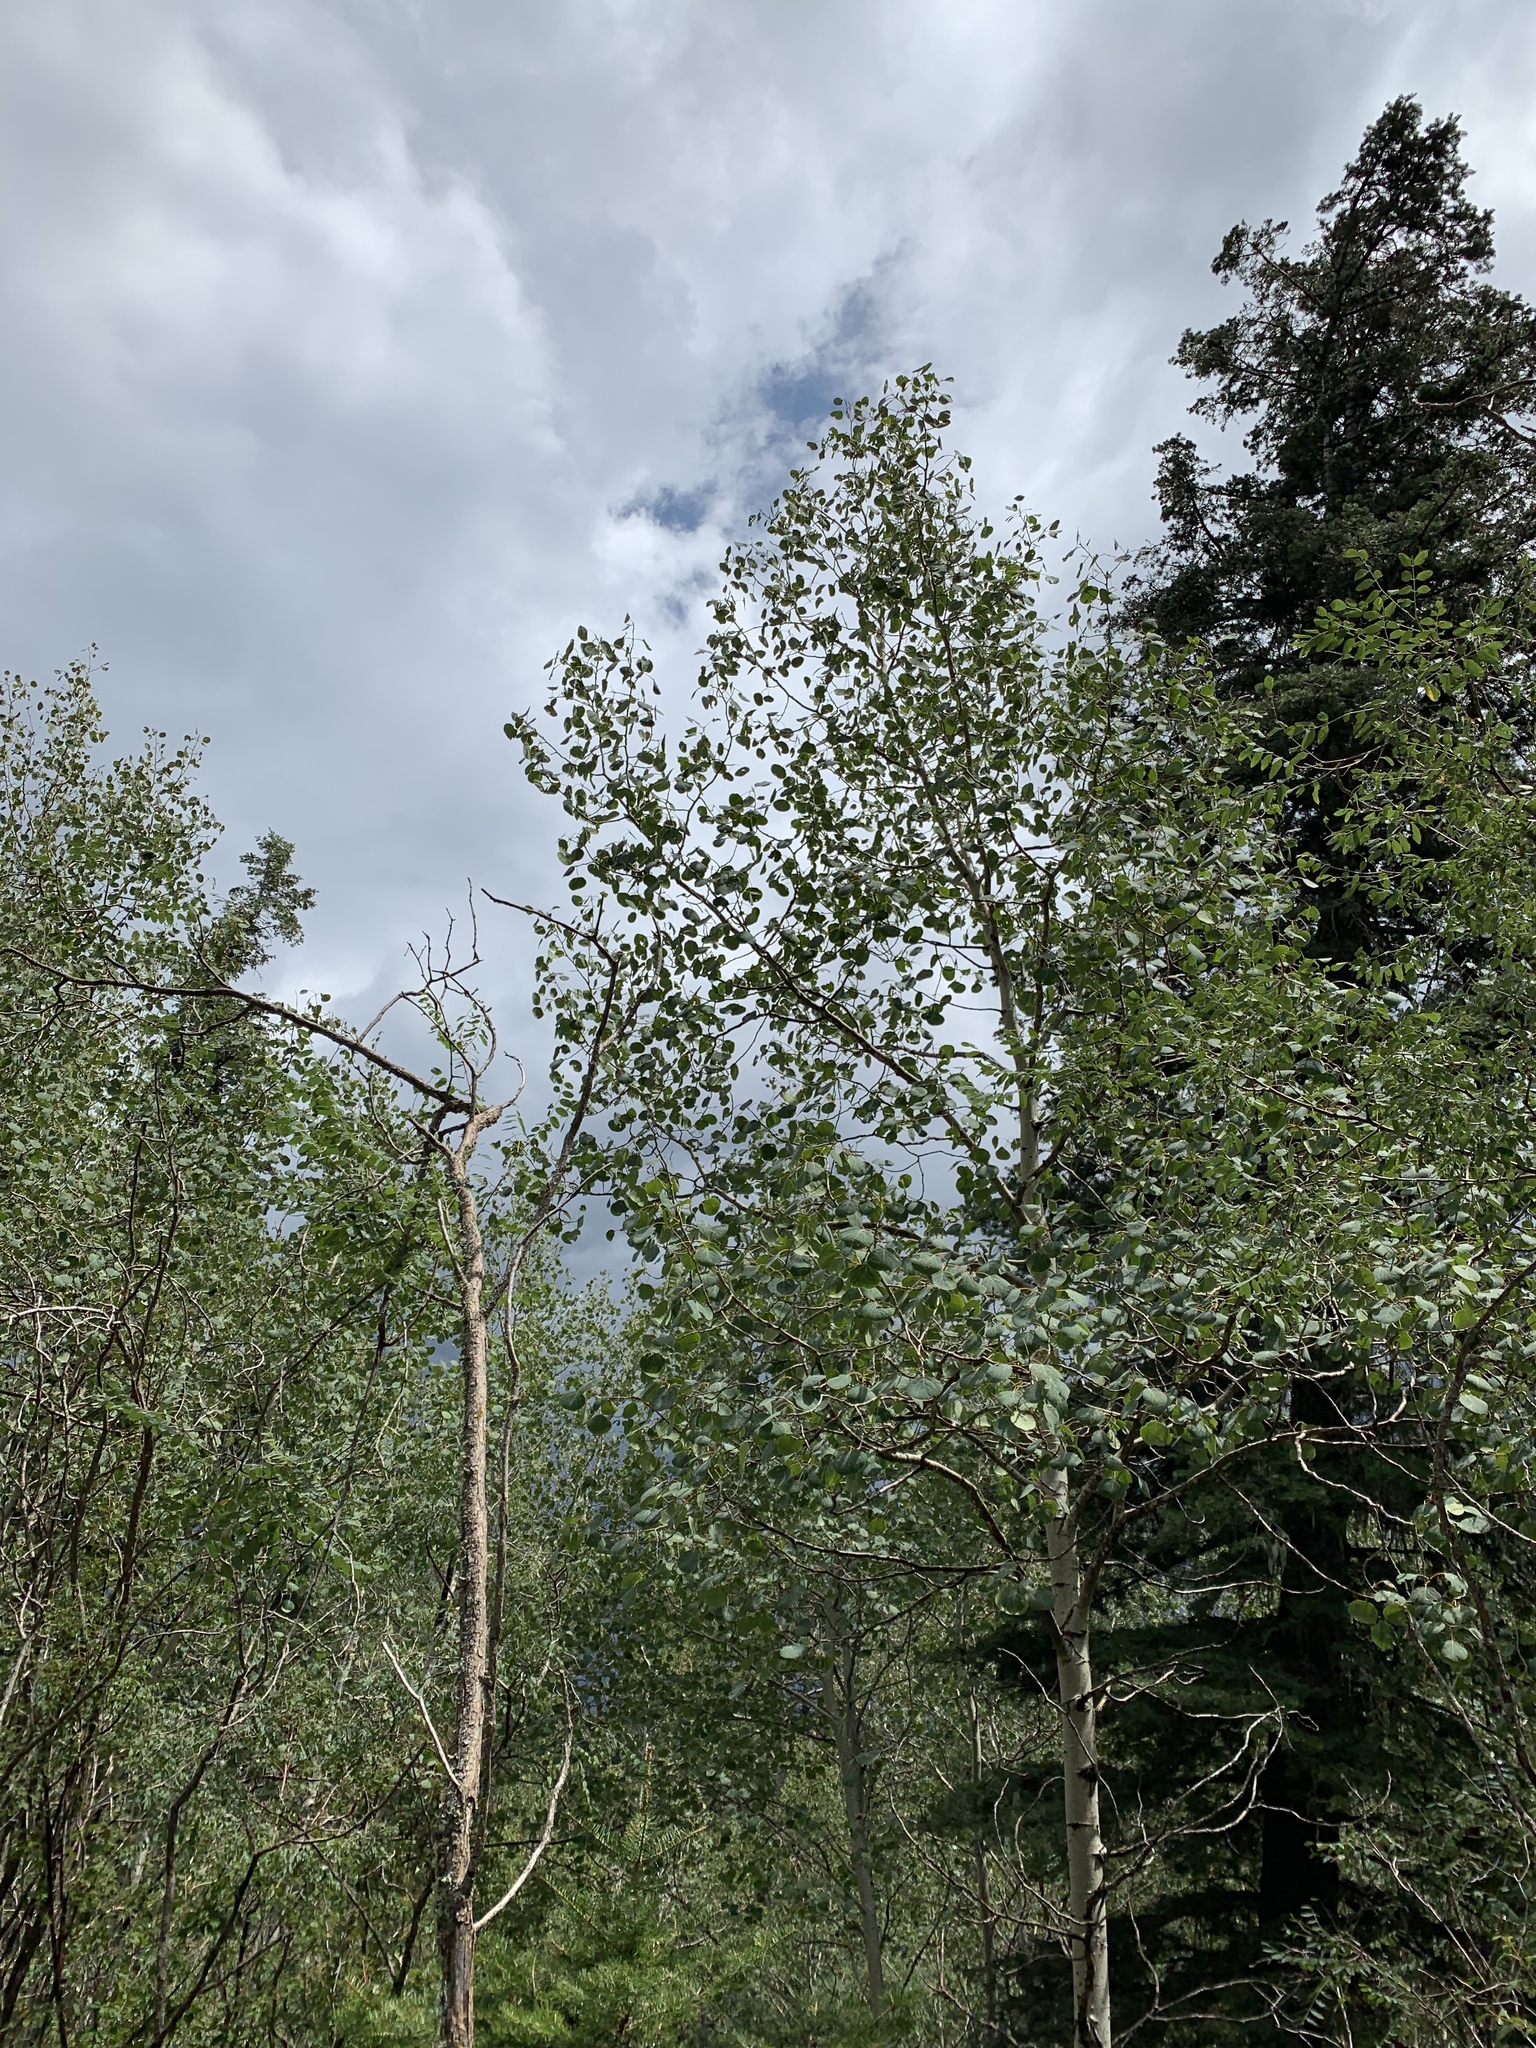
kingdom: Plantae
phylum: Tracheophyta
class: Magnoliopsida
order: Malpighiales
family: Salicaceae
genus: Populus
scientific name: Populus tremuloides
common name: Quaking aspen
